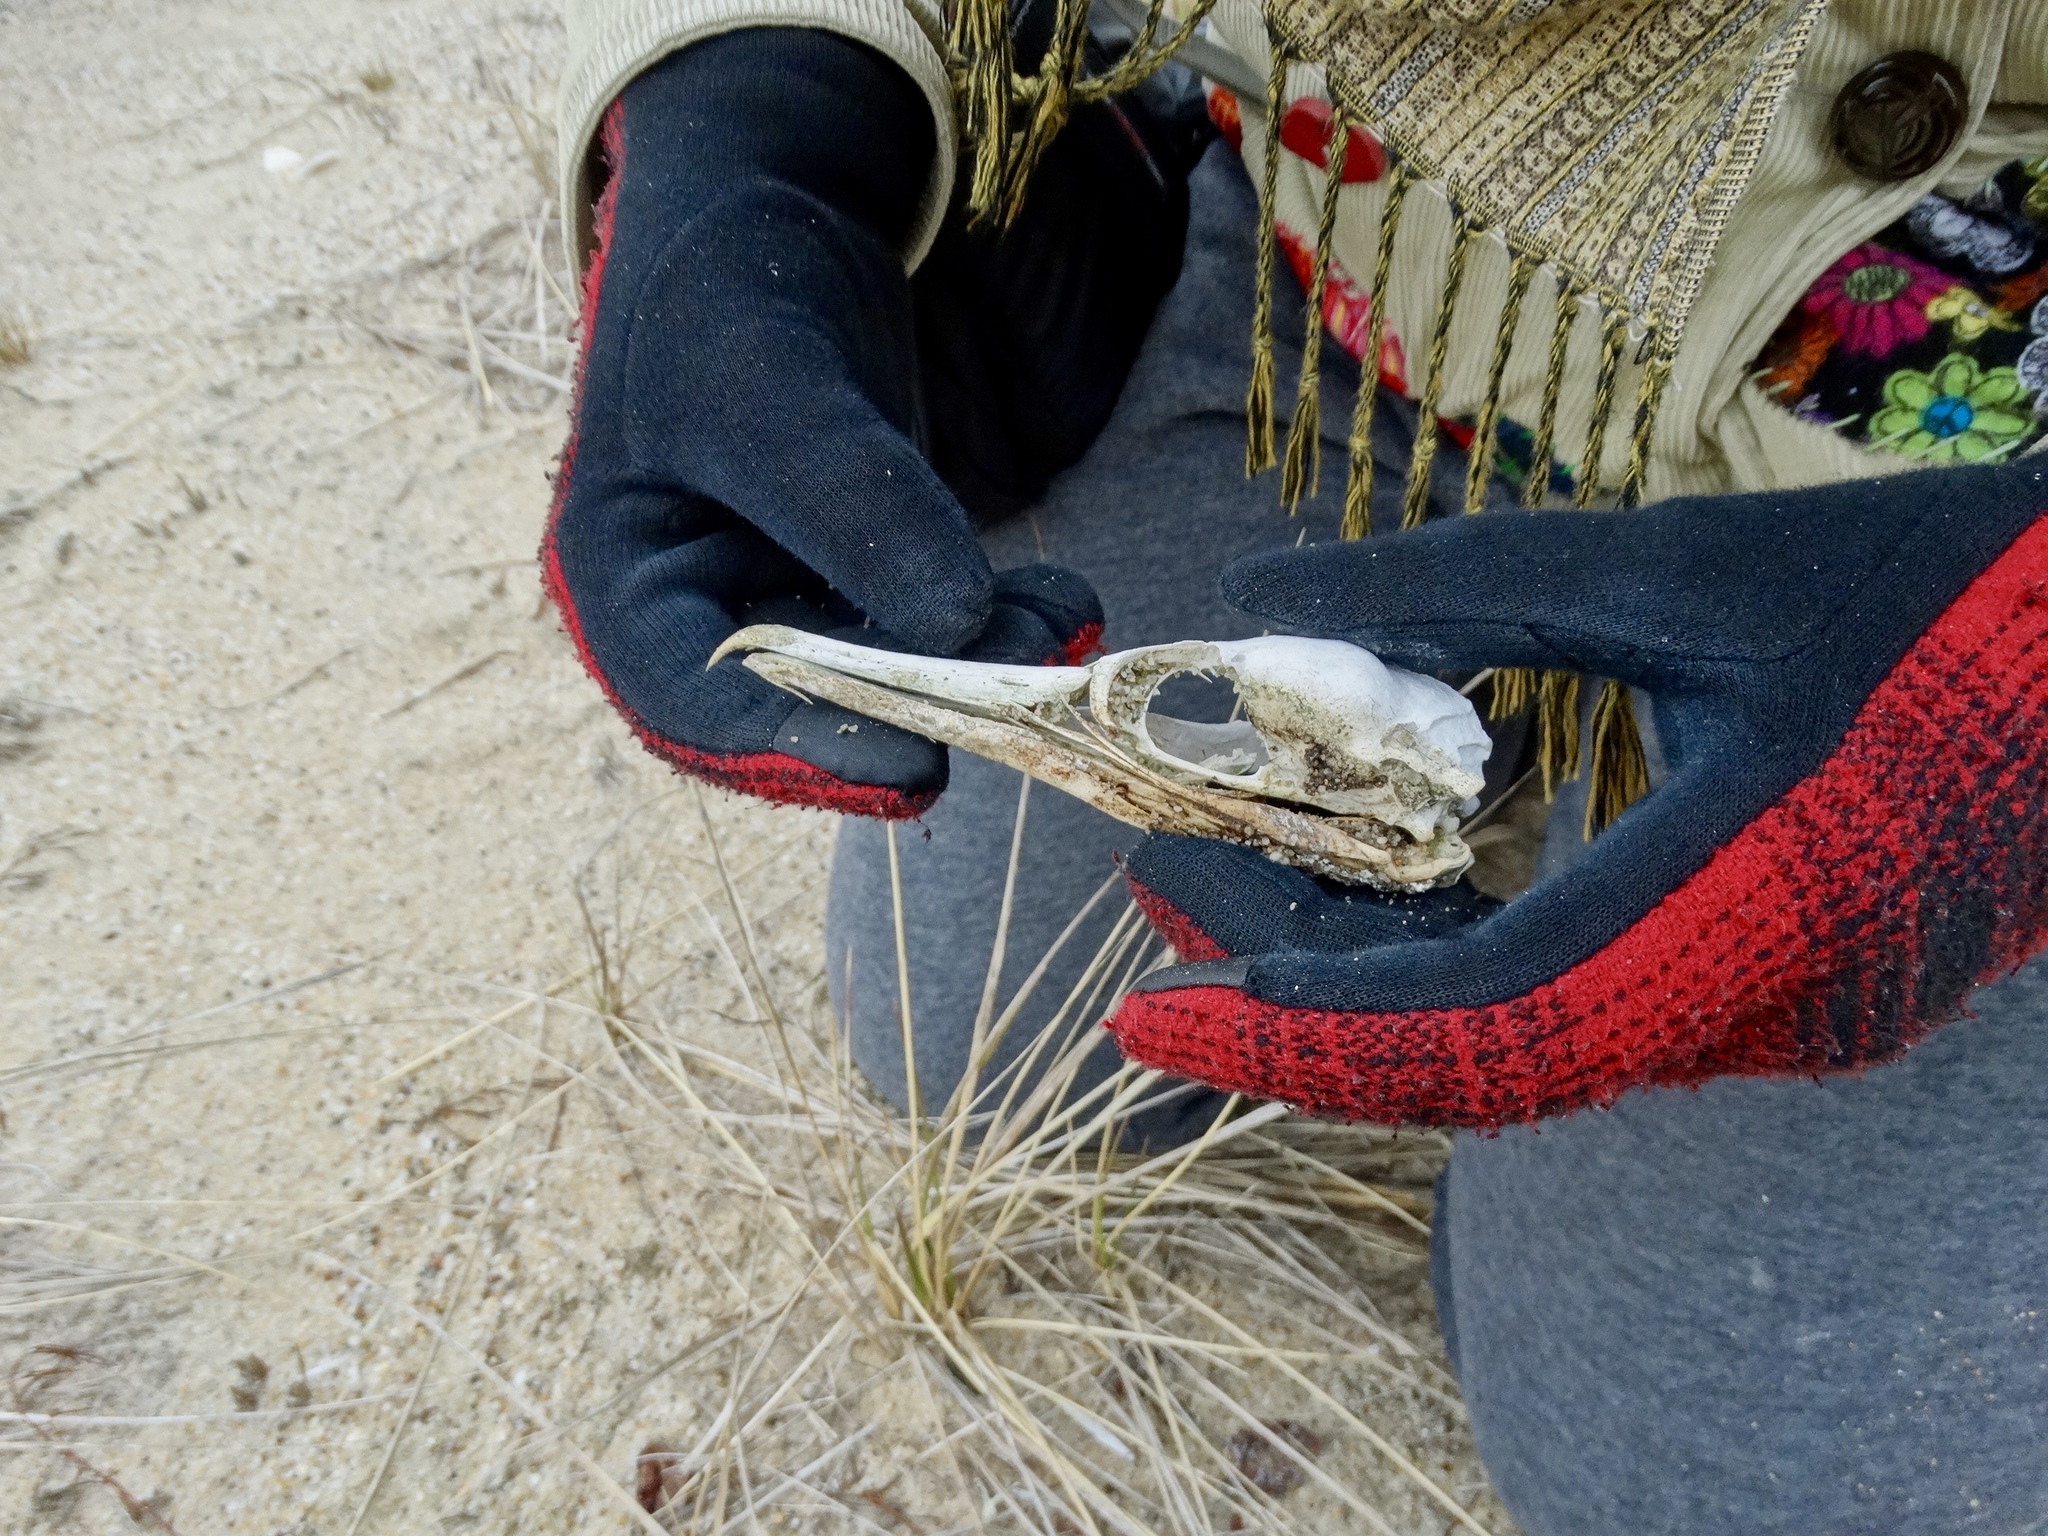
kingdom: Animalia
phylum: Chordata
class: Aves
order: Suliformes
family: Phalacrocoracidae
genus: Phalacrocorax
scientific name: Phalacrocorax auritus
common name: Double-crested cormorant
